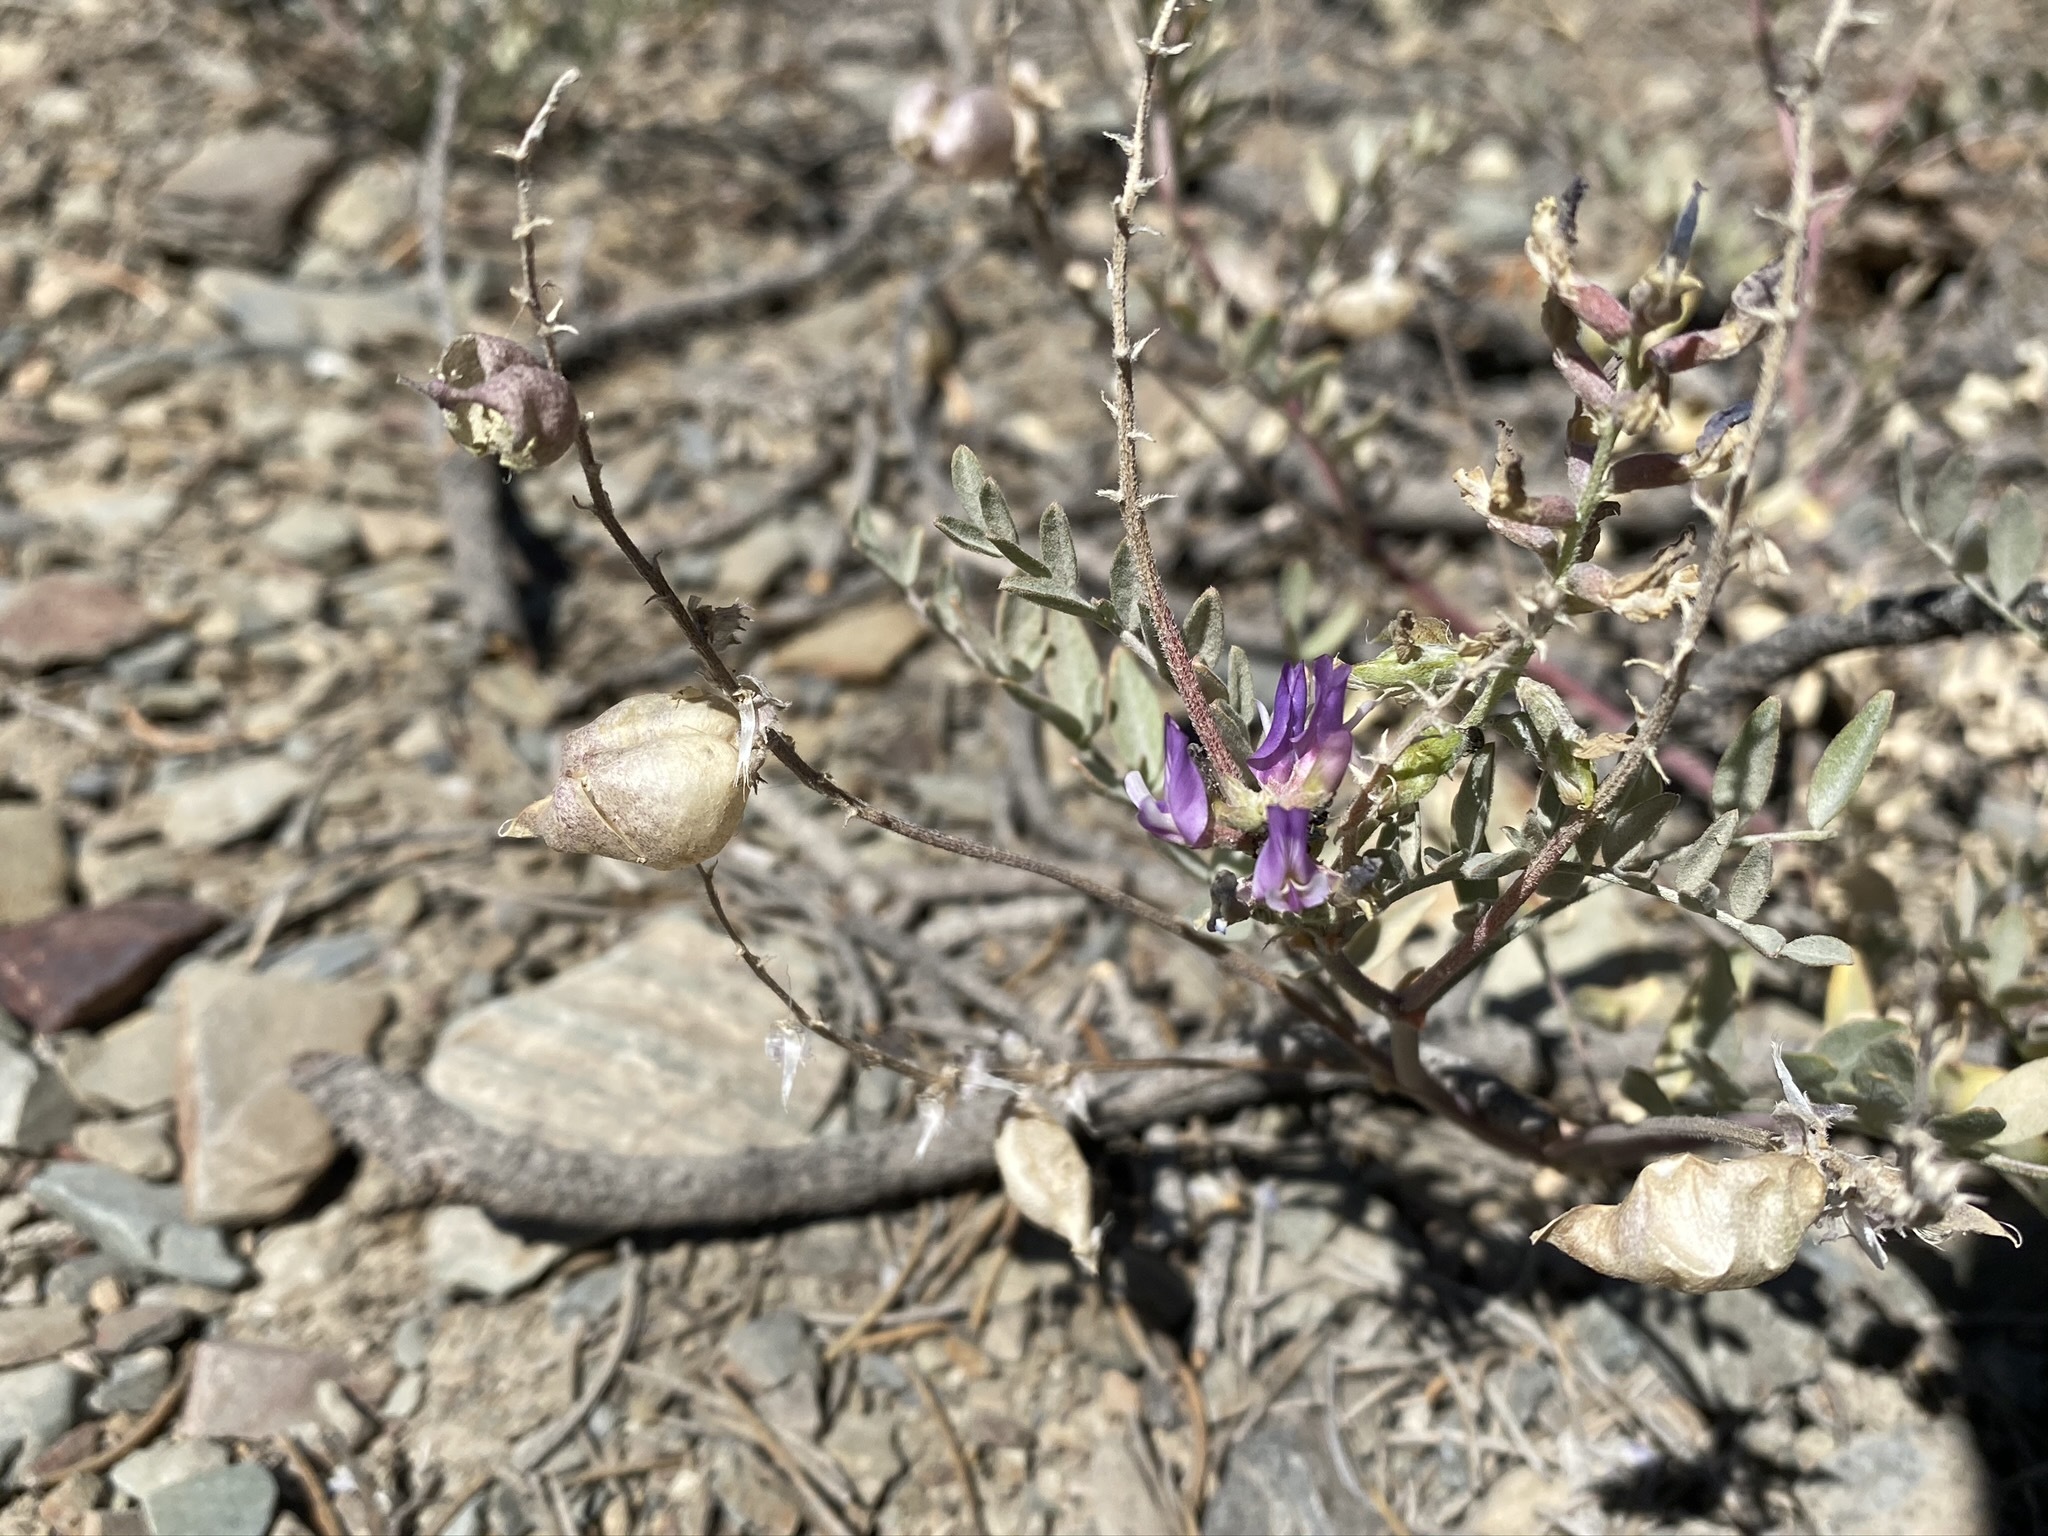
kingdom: Plantae
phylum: Tracheophyta
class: Magnoliopsida
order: Fabales
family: Fabaceae
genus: Astragalus
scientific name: Astragalus lentiginosus
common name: Freckled milkvetch
